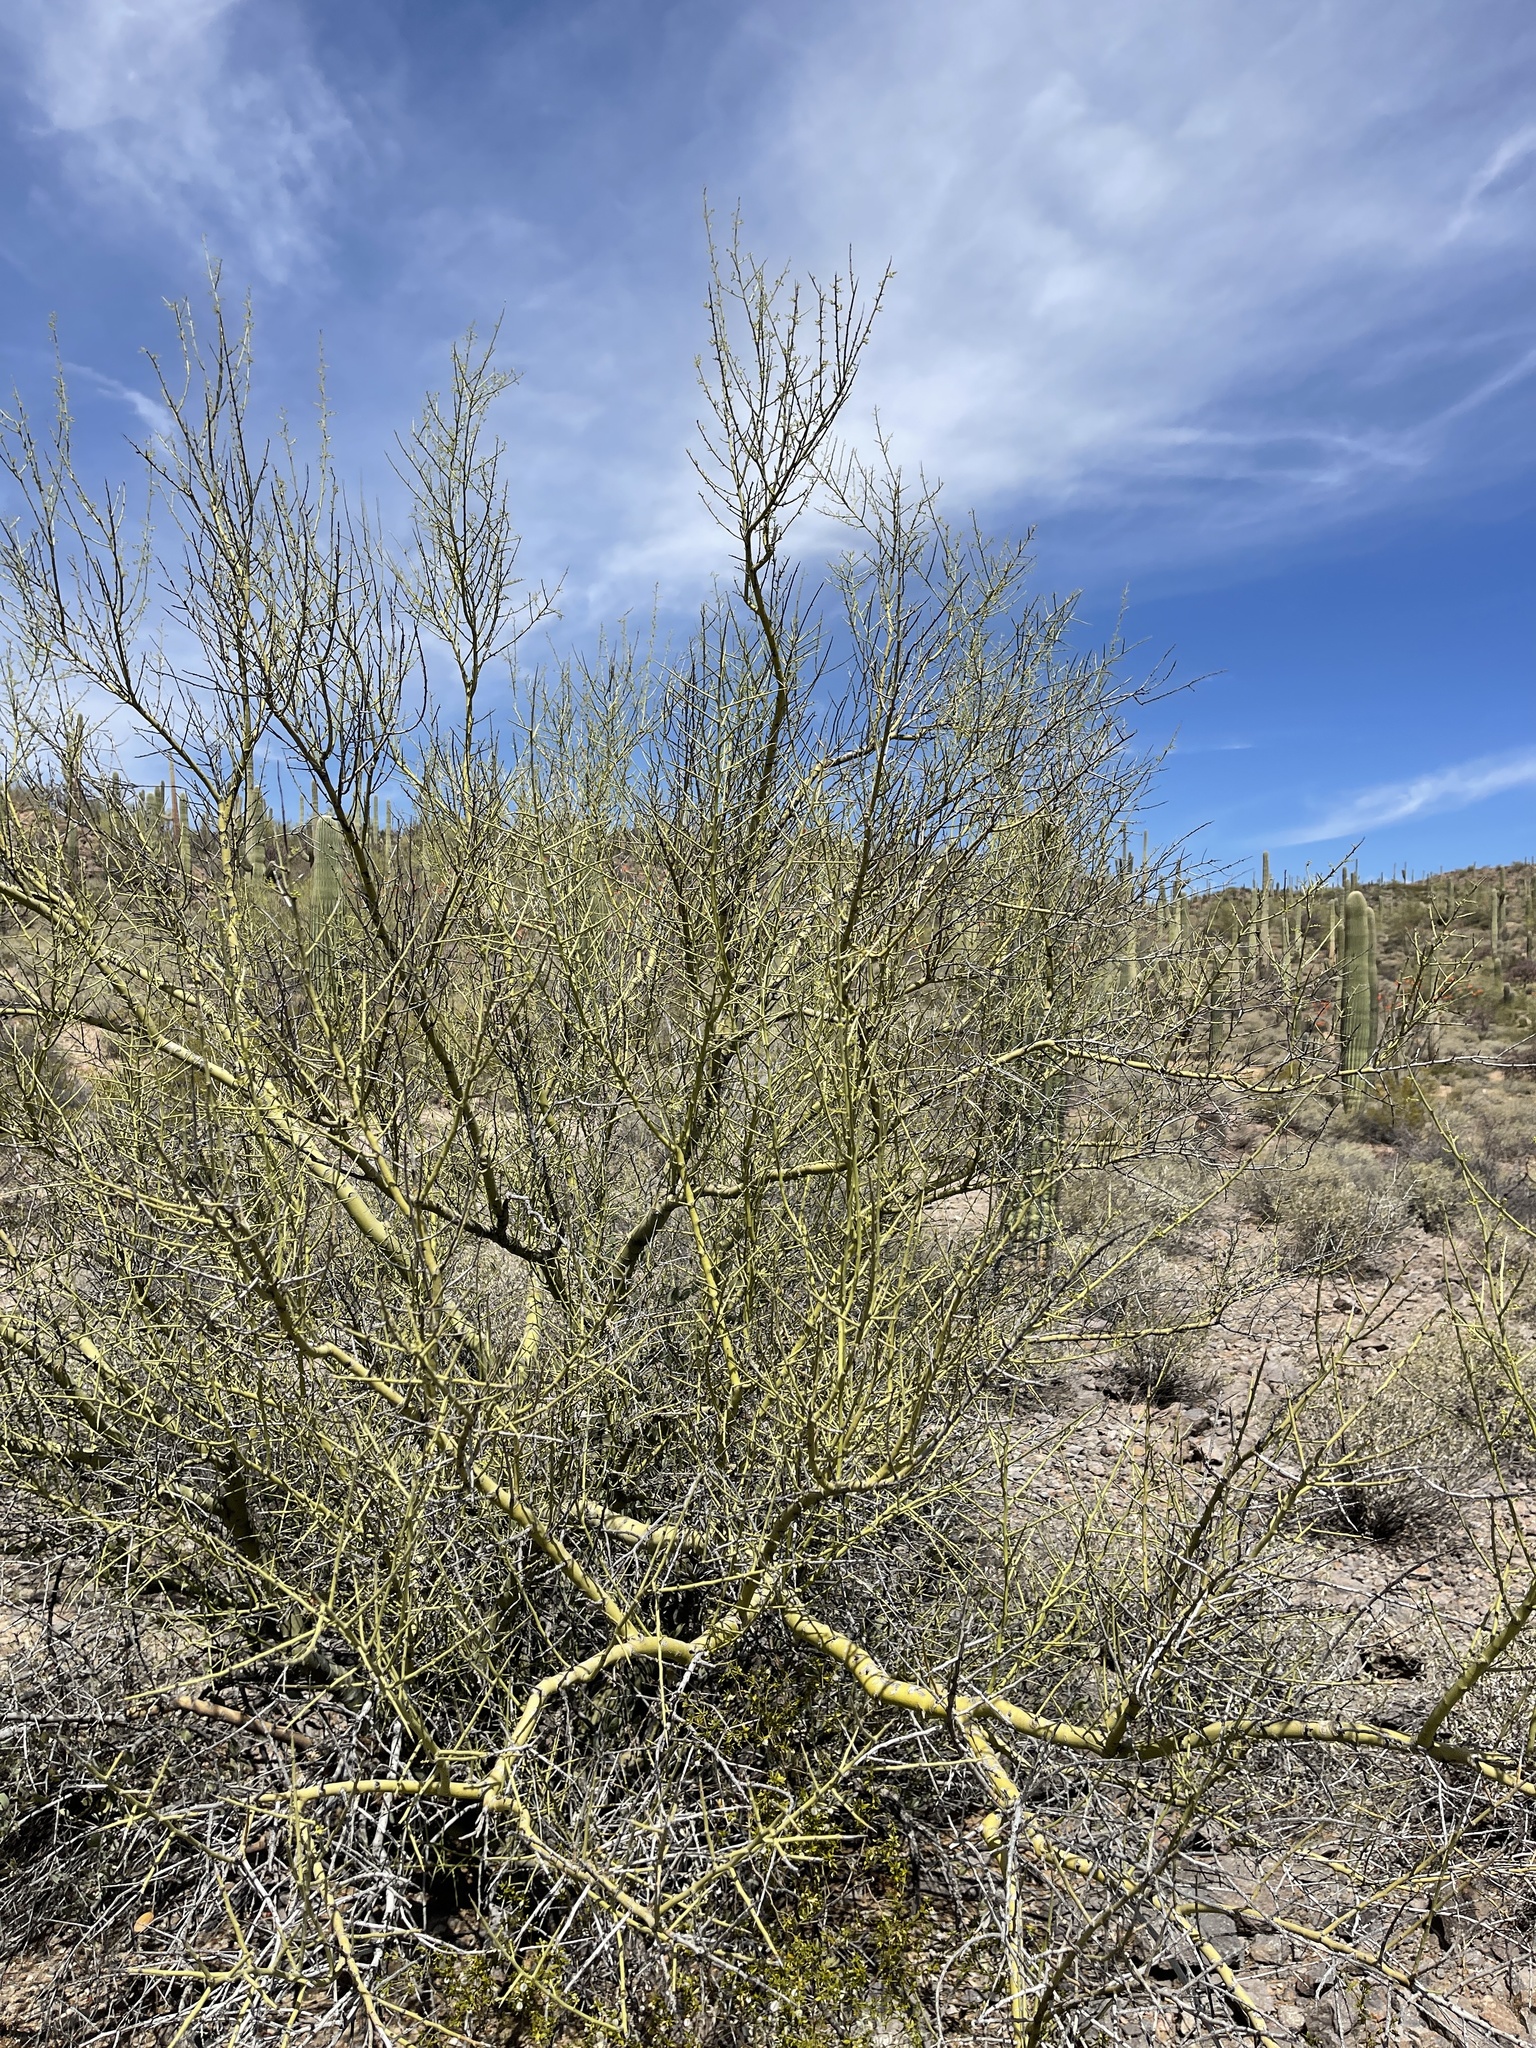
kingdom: Plantae
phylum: Tracheophyta
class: Magnoliopsida
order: Fabales
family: Fabaceae
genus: Parkinsonia
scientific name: Parkinsonia microphylla
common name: Yellow paloverde
